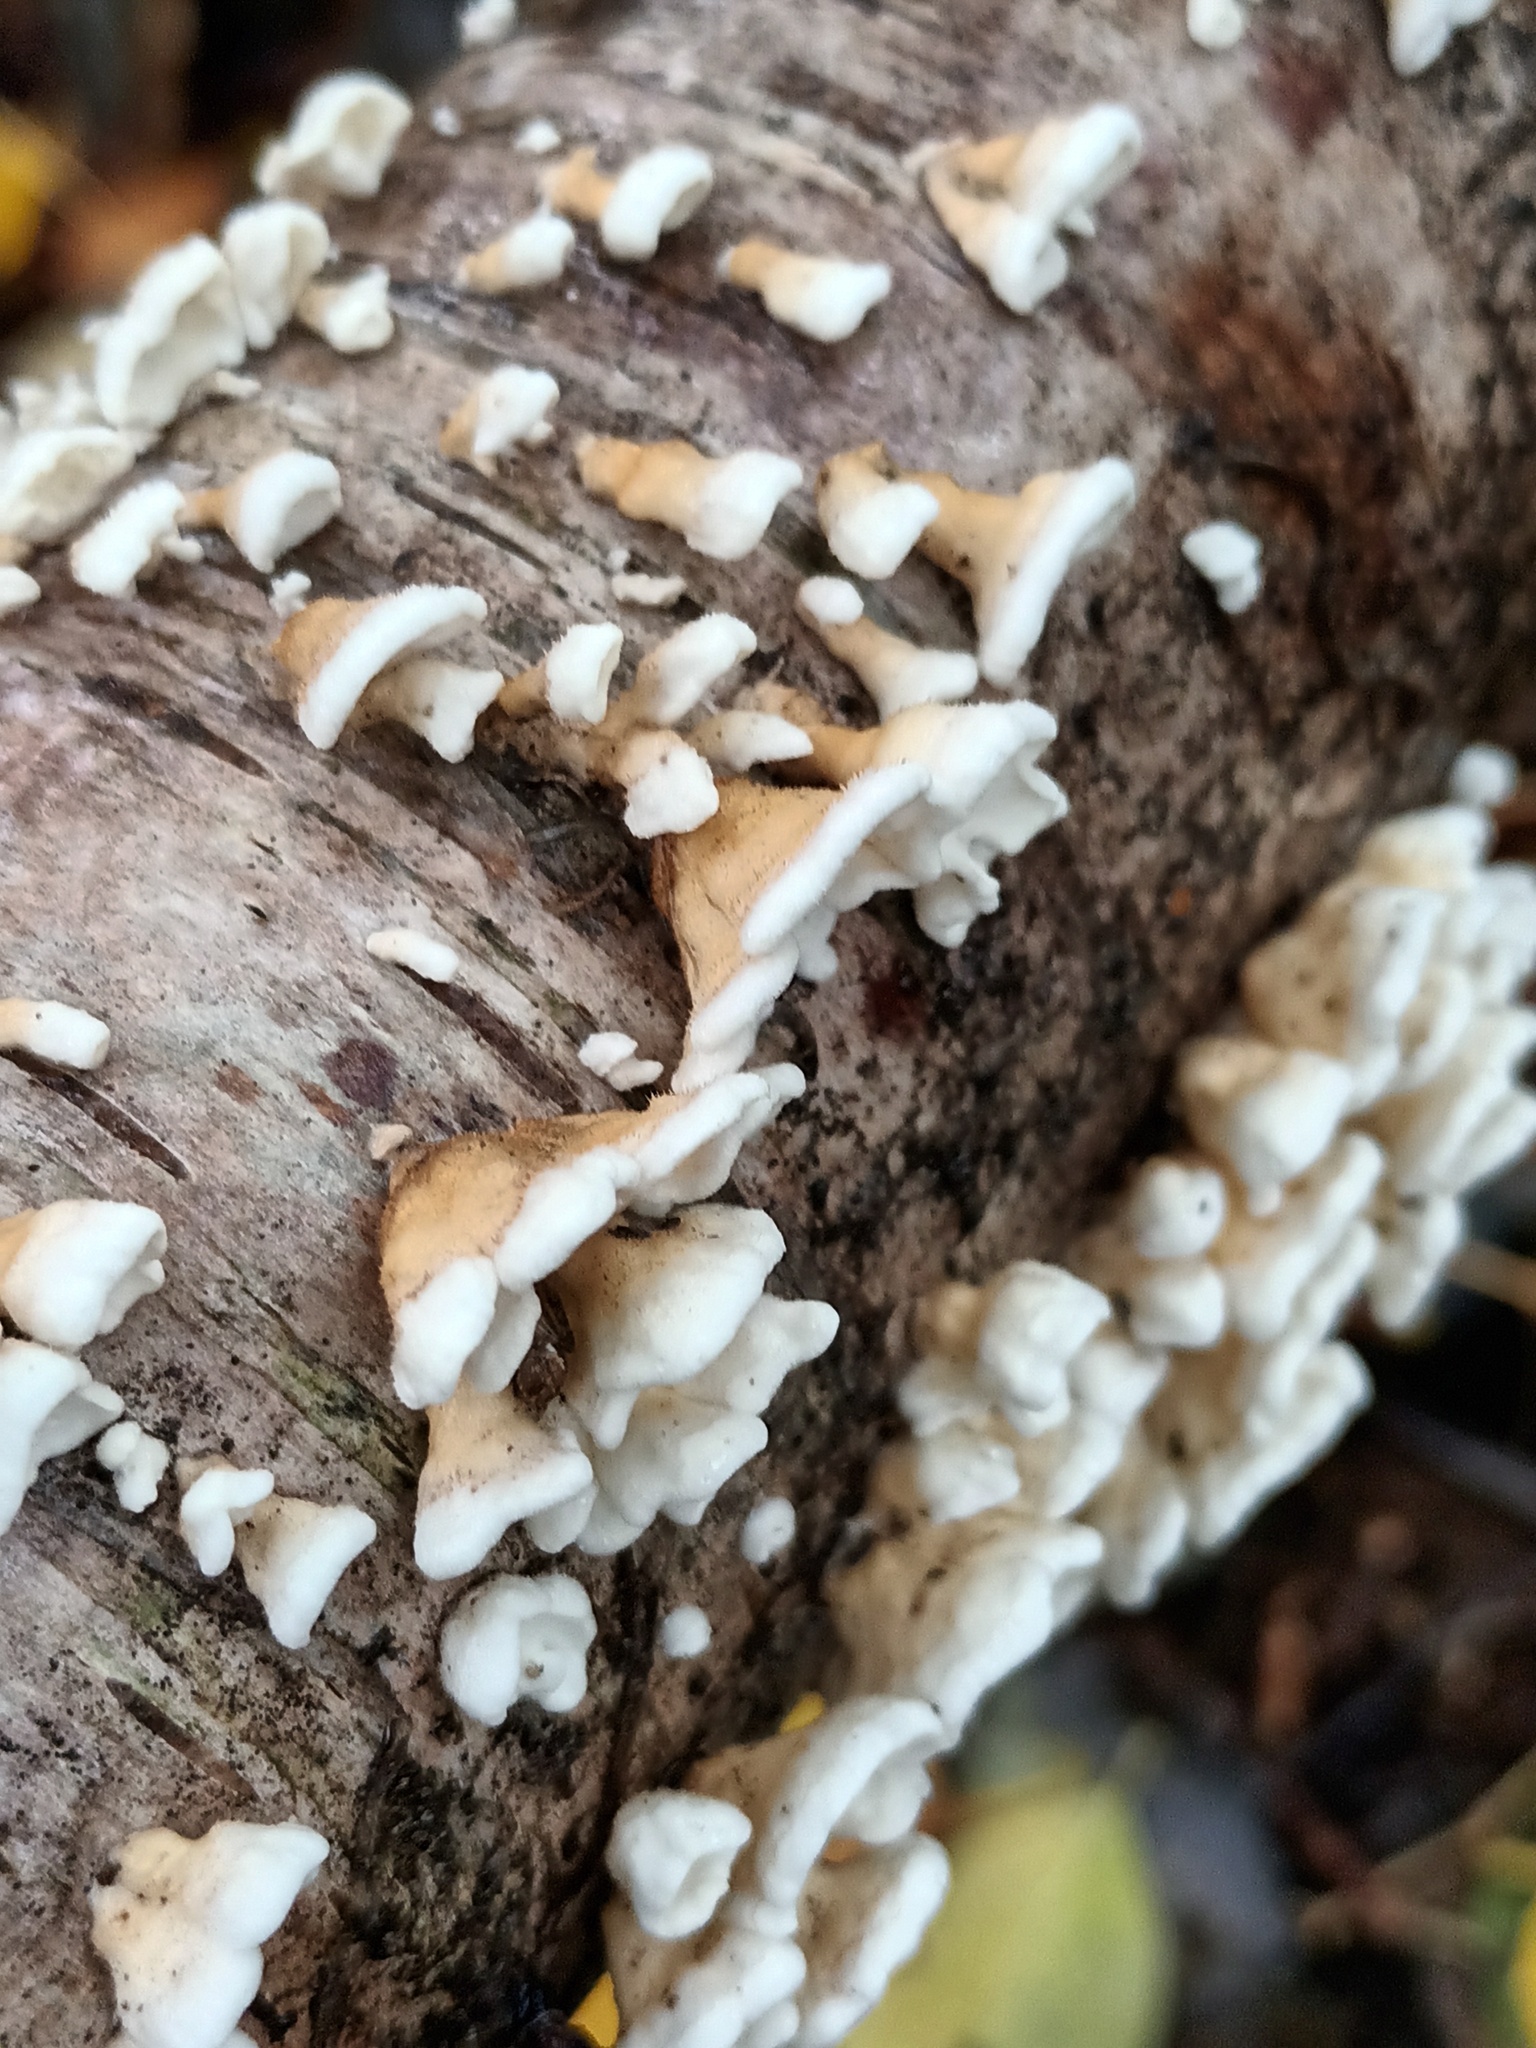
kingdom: Fungi
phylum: Basidiomycota
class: Agaricomycetes
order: Amylocorticiales
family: Amylocorticiaceae
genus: Plicaturopsis
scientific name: Plicaturopsis crispa
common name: Crimped gill
